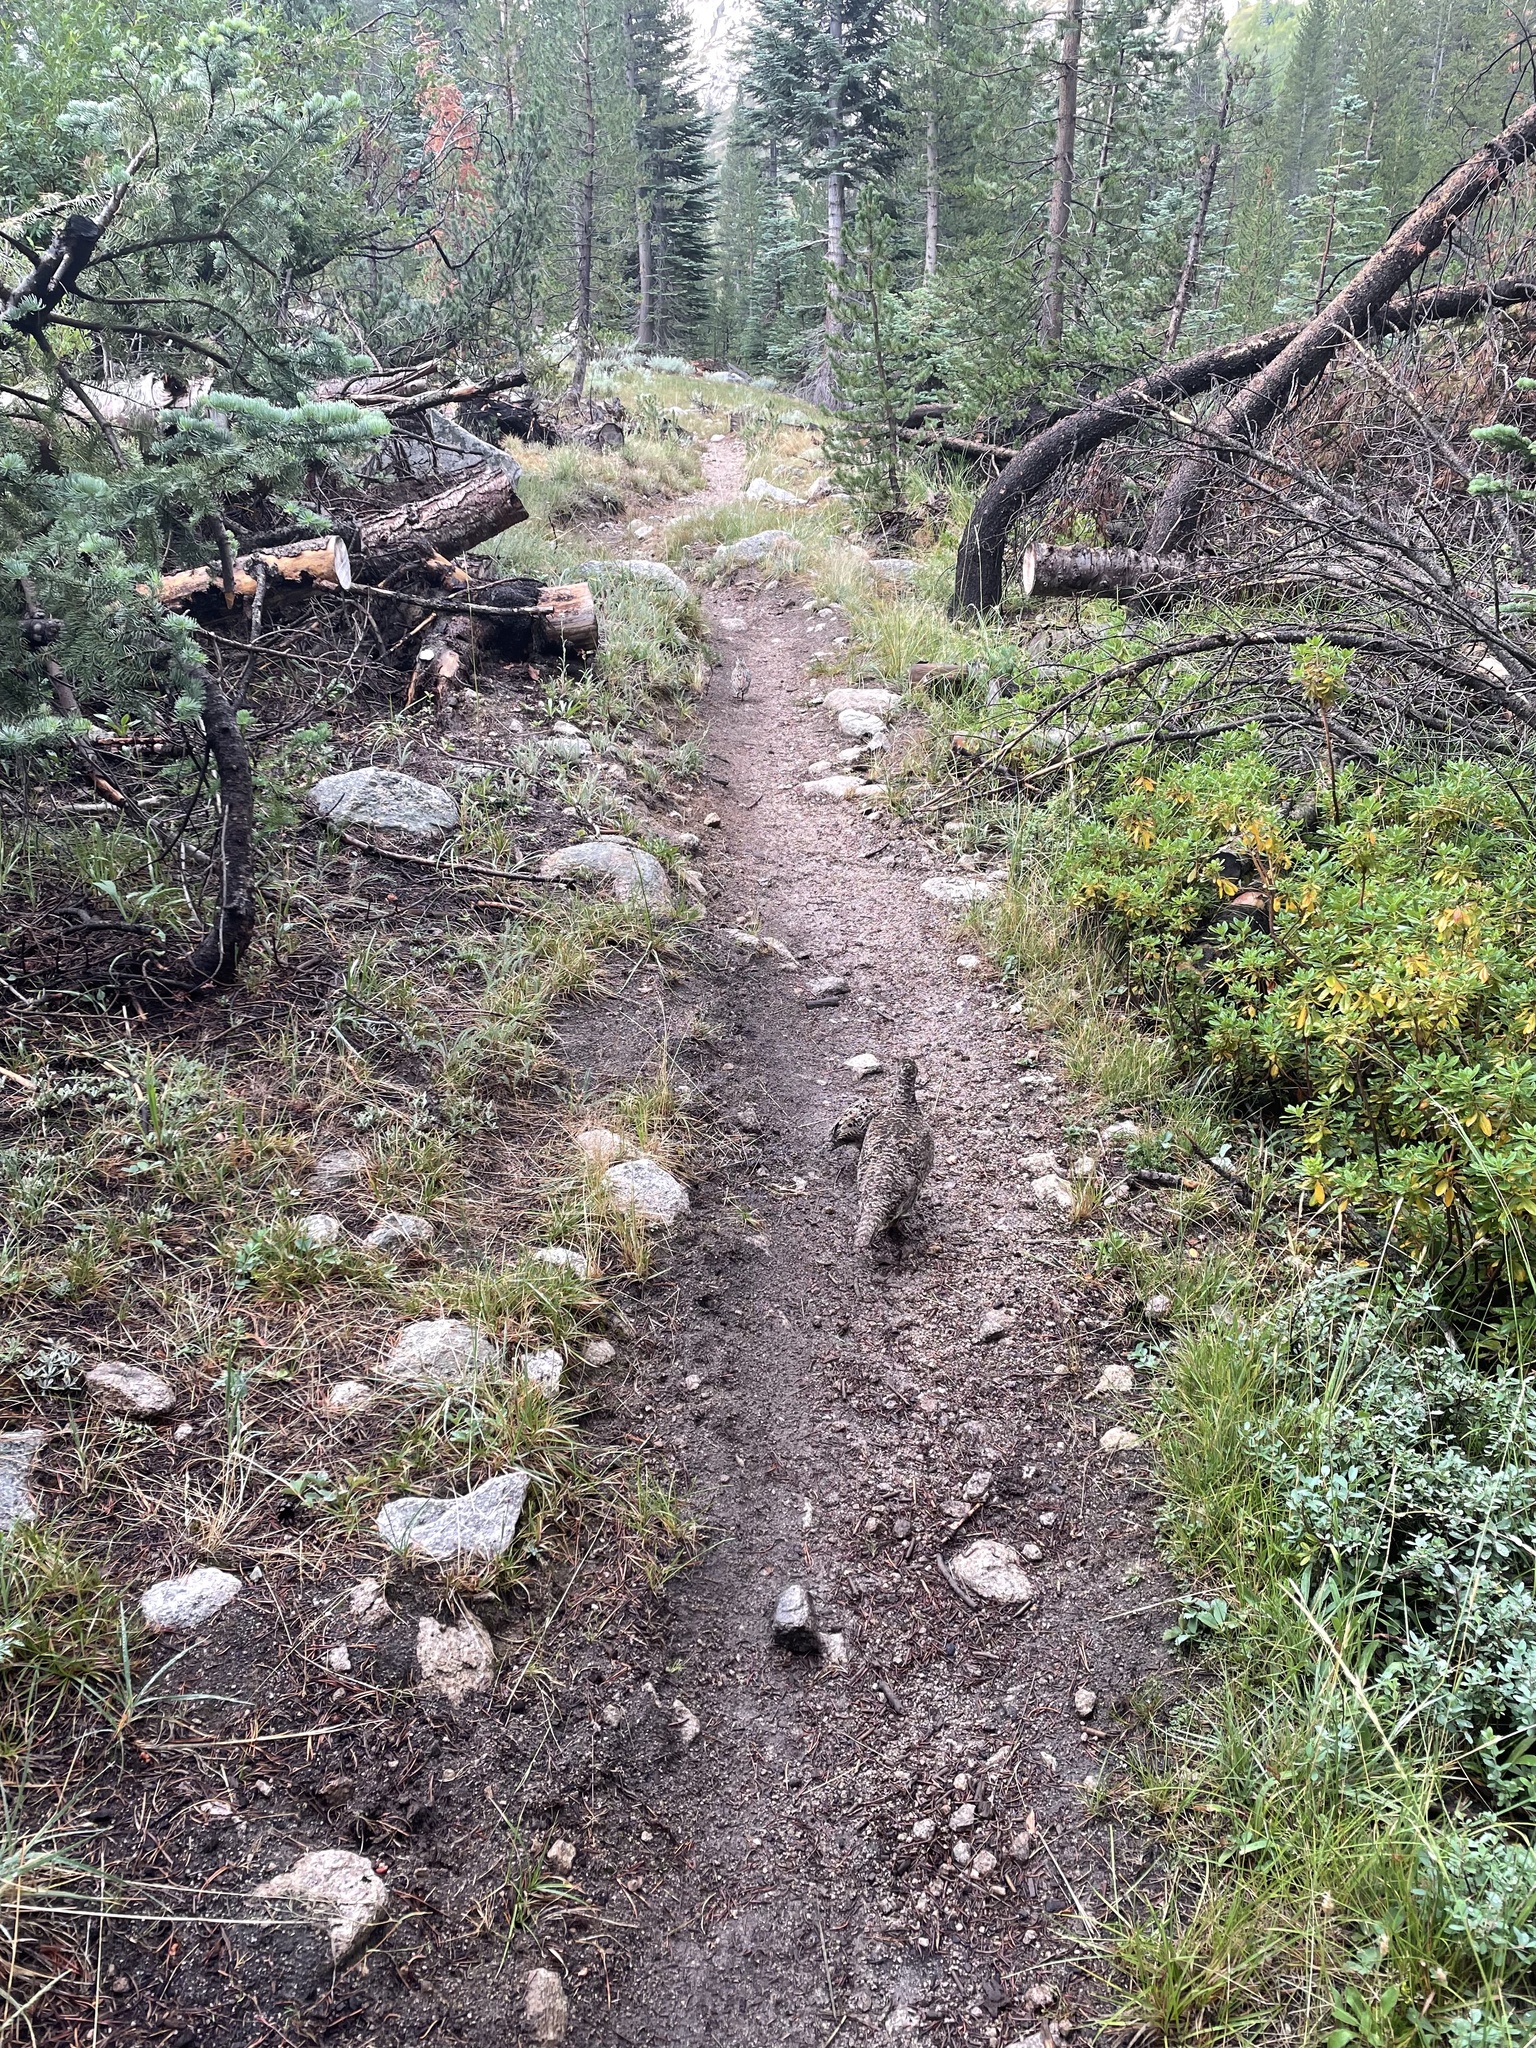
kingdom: Animalia
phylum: Chordata
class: Aves
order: Galliformes
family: Phasianidae
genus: Dendragapus
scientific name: Dendragapus fuliginosus
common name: Sooty grouse
